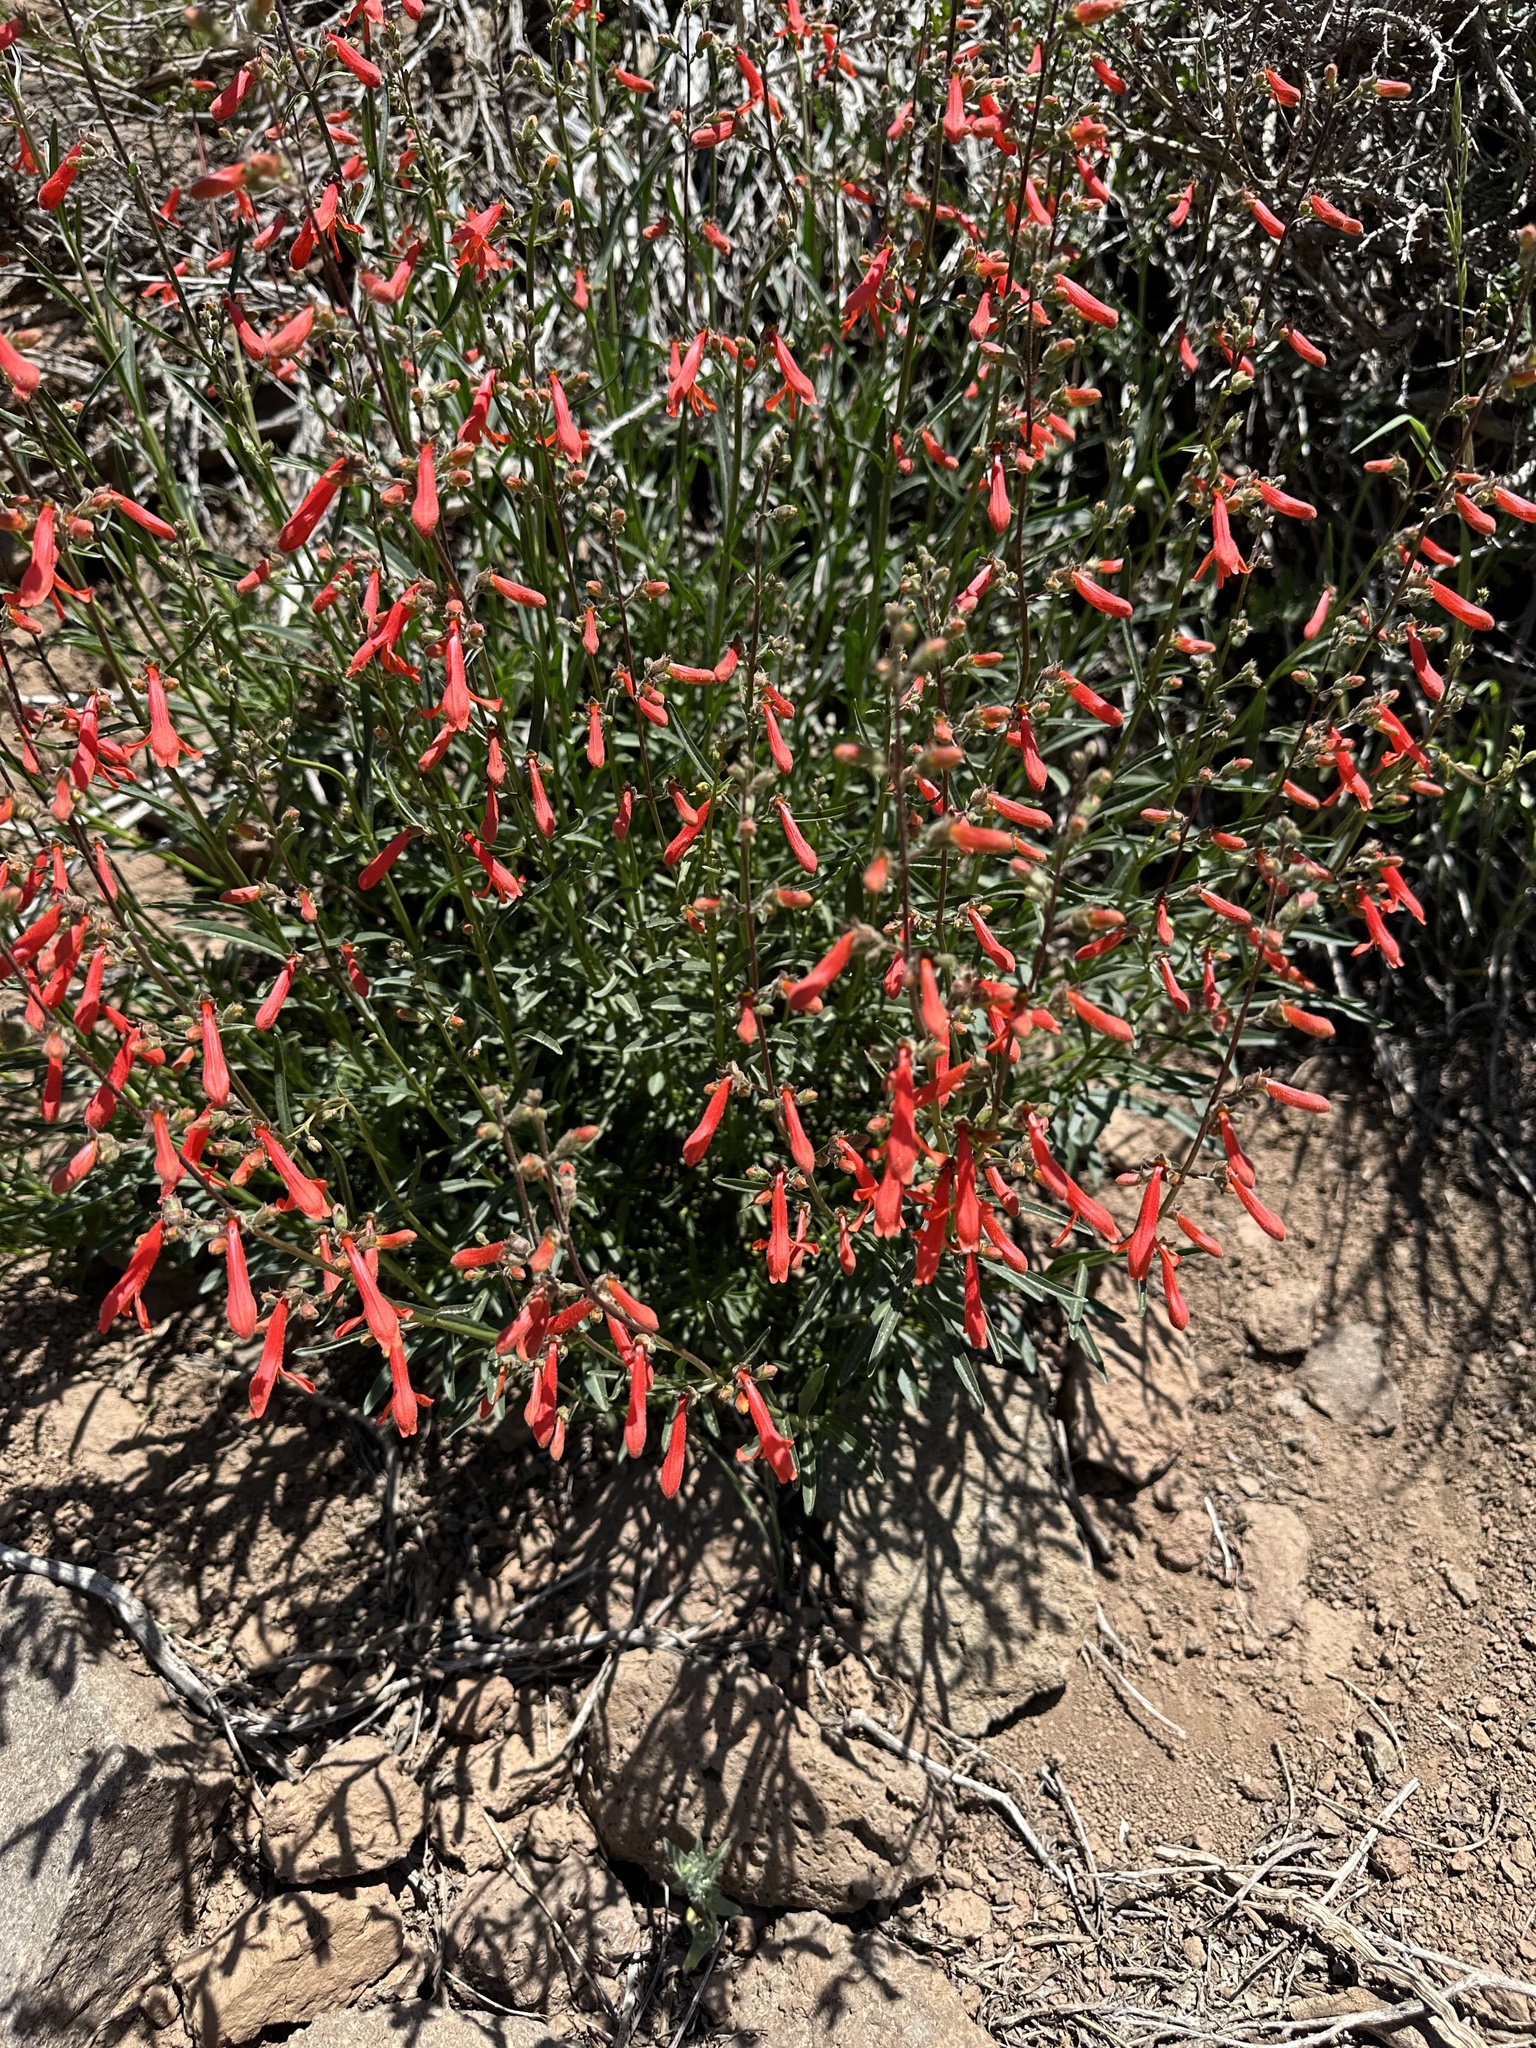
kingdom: Plantae
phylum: Tracheophyta
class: Magnoliopsida
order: Lamiales
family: Plantaginaceae
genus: Penstemon
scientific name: Penstemon rostriflorus
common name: Bridges's penstemon
